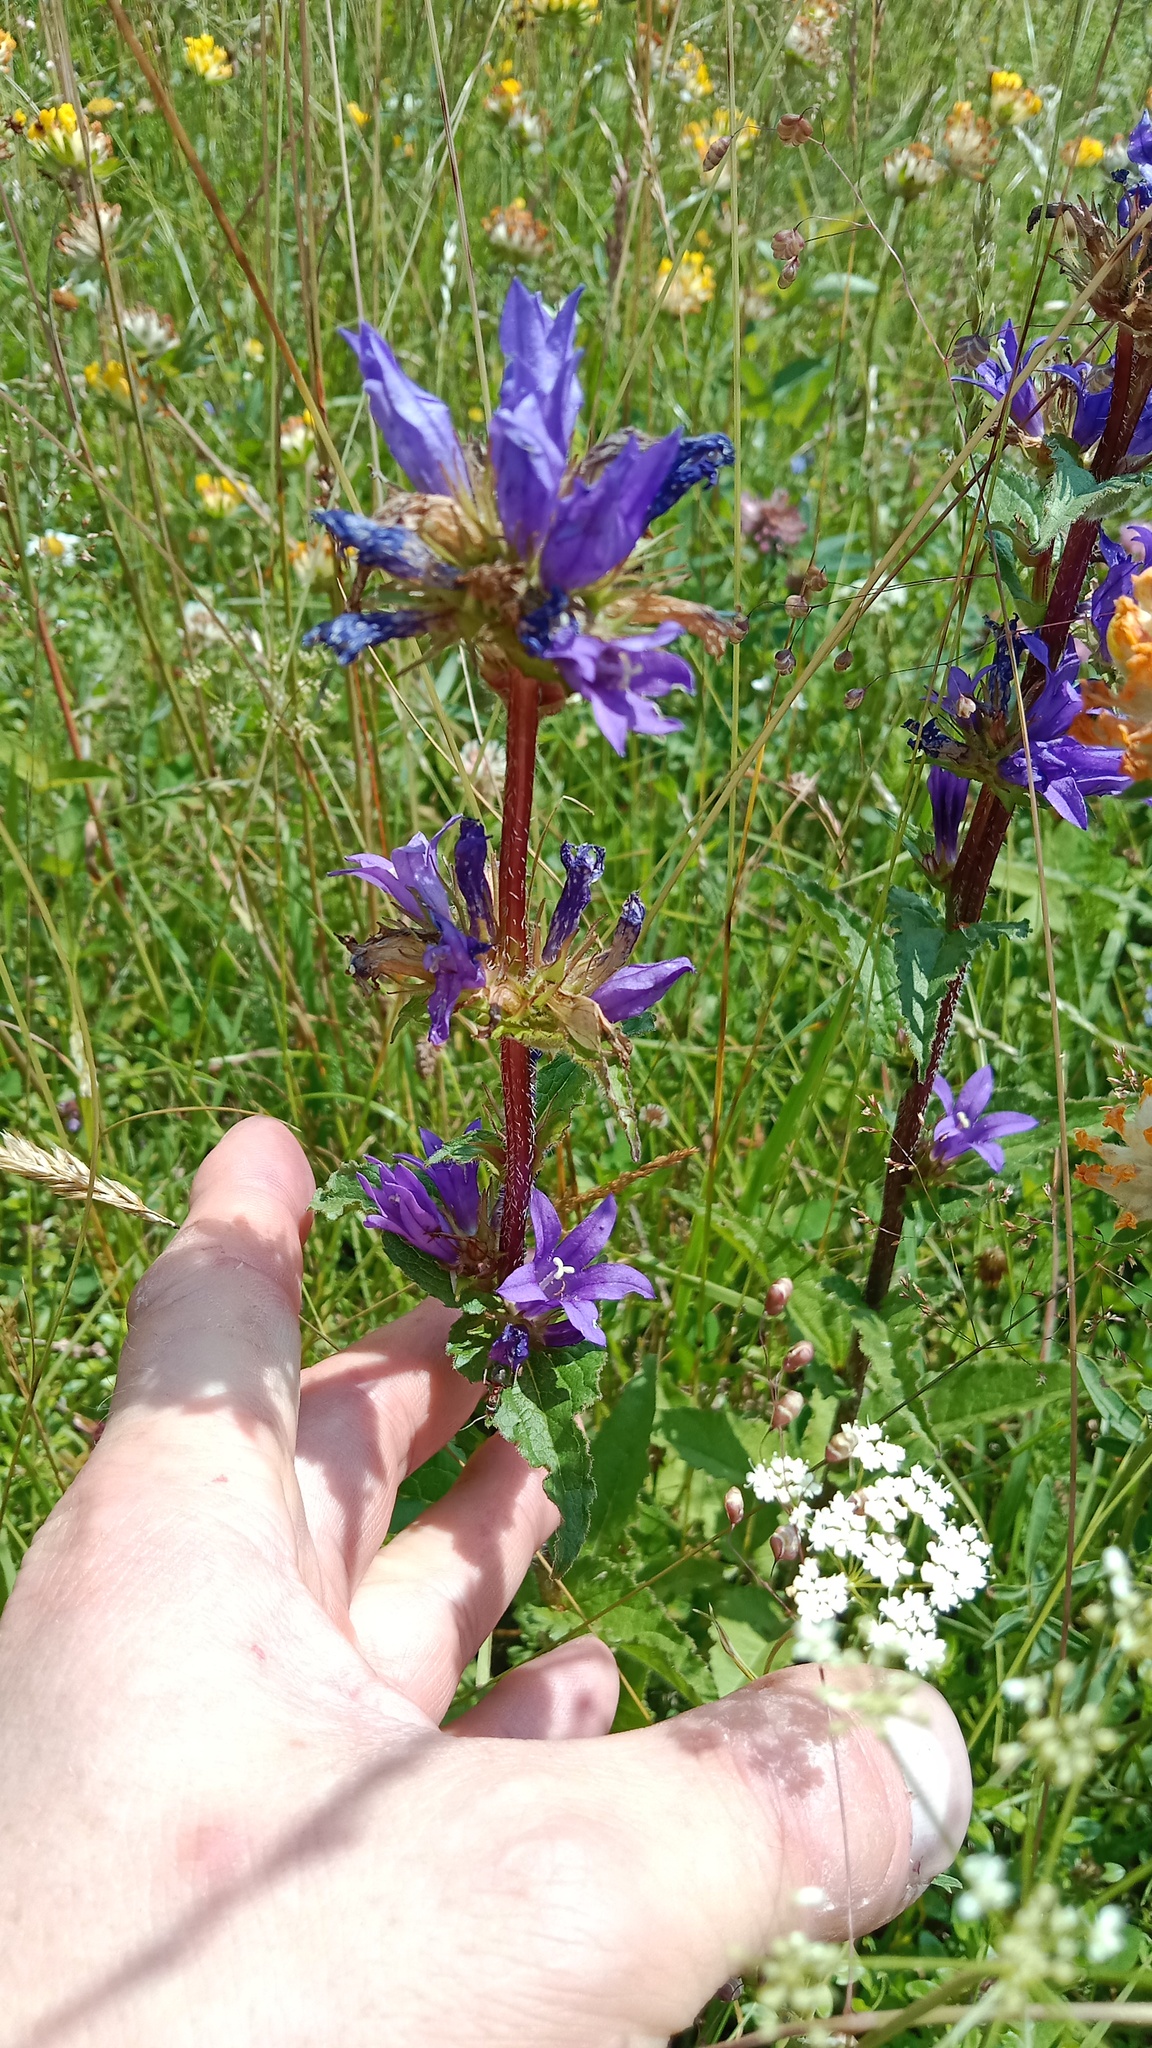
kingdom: Plantae
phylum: Tracheophyta
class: Magnoliopsida
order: Asterales
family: Campanulaceae
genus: Campanula
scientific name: Campanula glomerata
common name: Clustered bellflower
